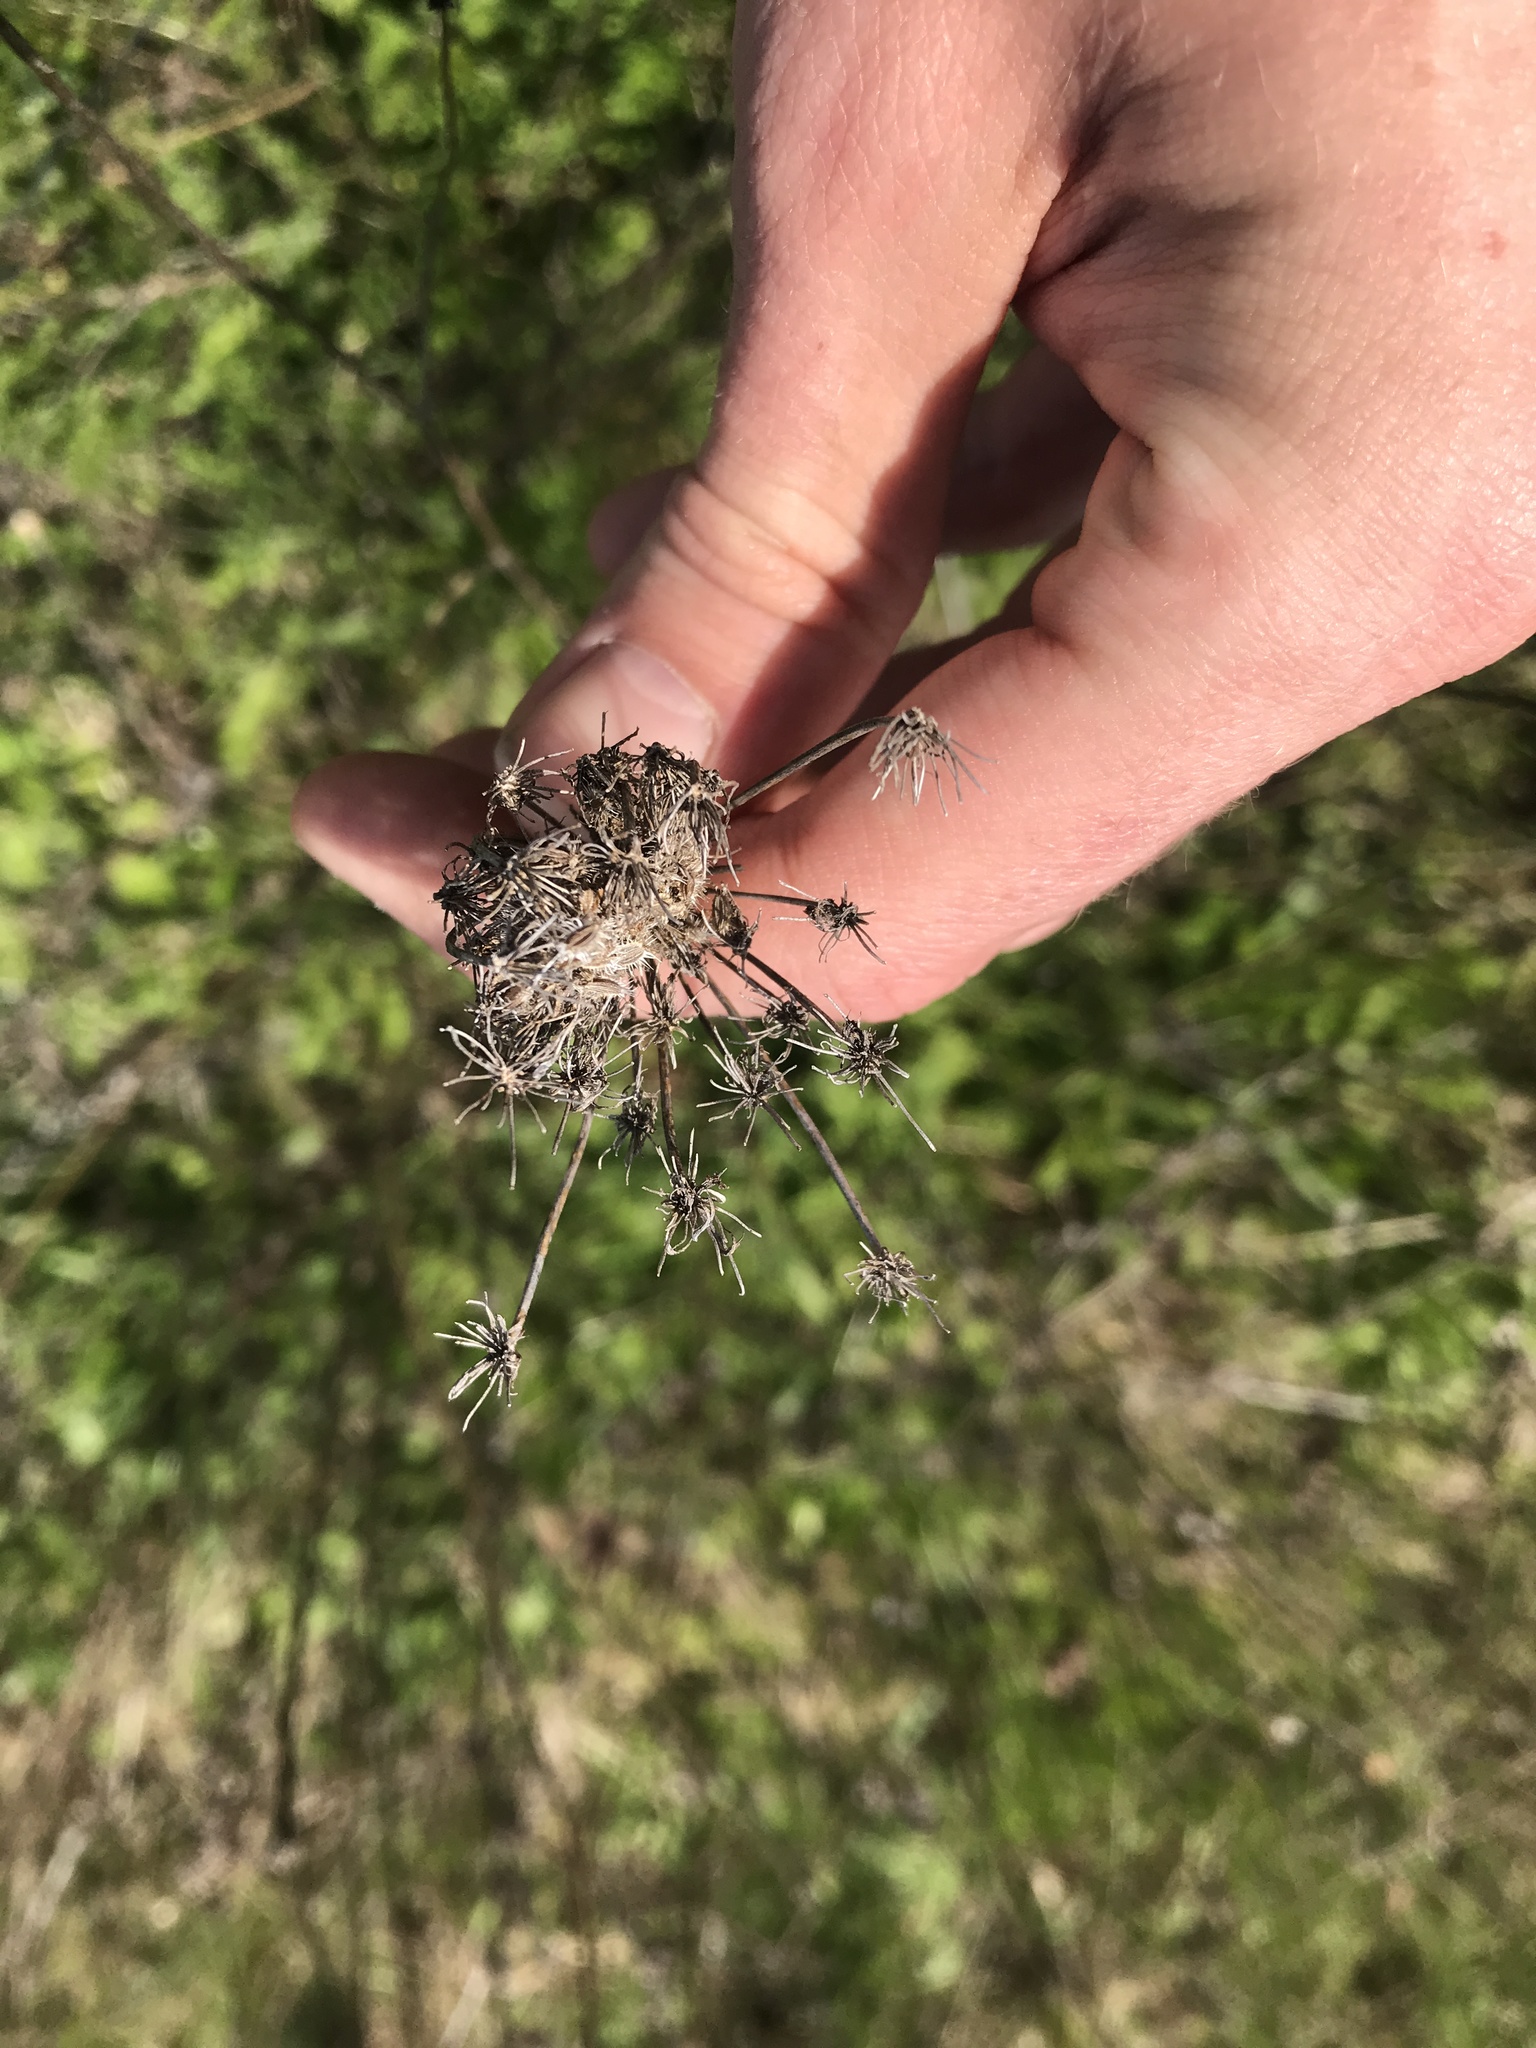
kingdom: Plantae
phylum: Tracheophyta
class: Magnoliopsida
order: Apiales
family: Apiaceae
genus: Daucus
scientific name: Daucus carota
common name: Wild carrot
